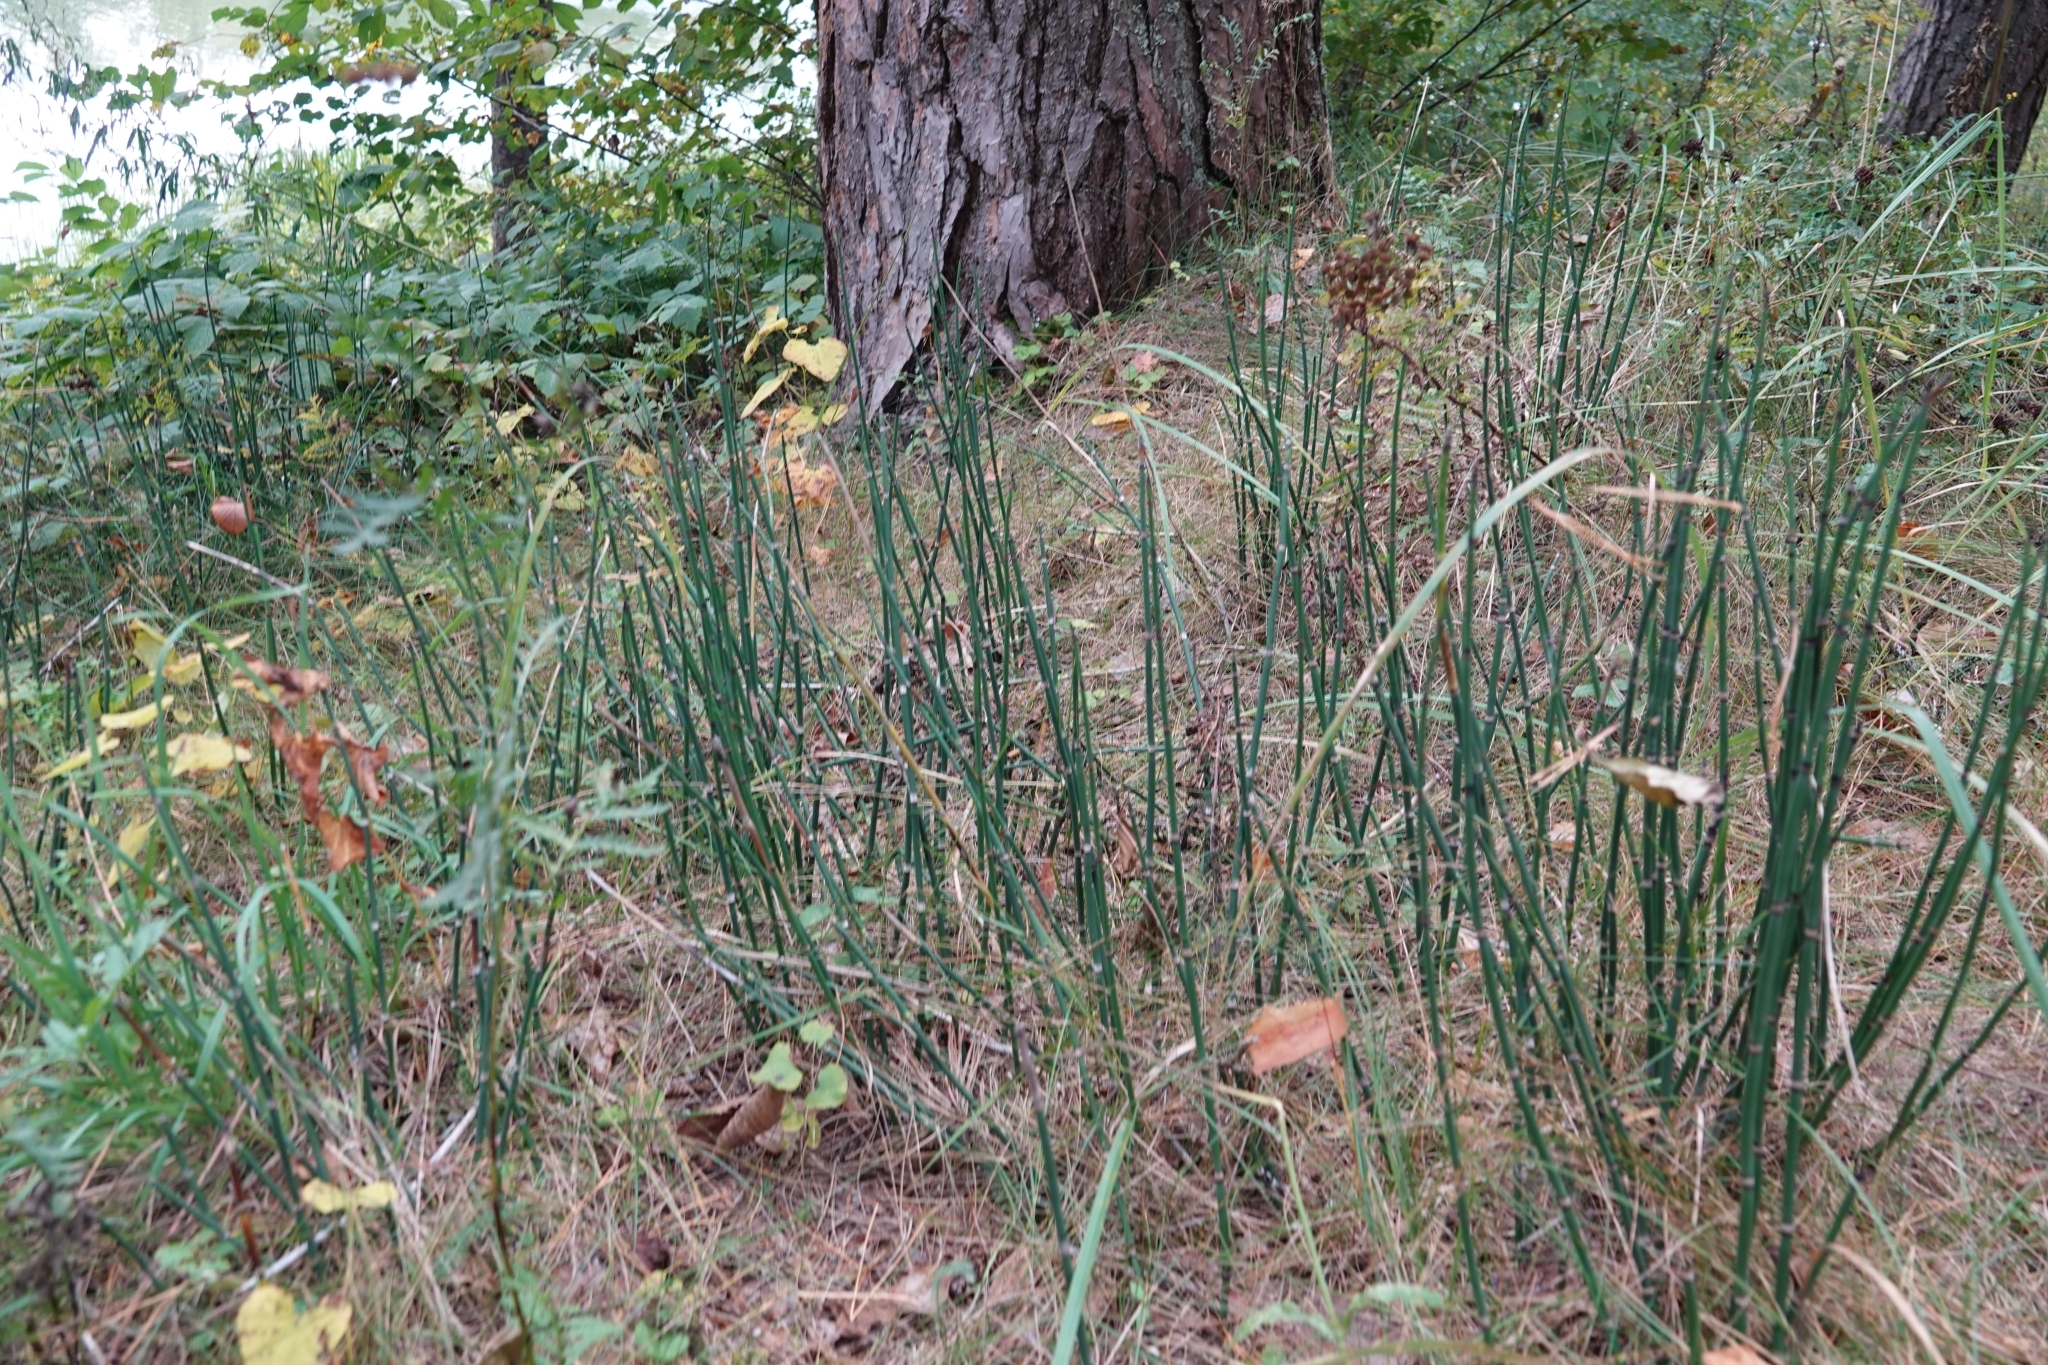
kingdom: Plantae
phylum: Tracheophyta
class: Polypodiopsida
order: Equisetales
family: Equisetaceae
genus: Equisetum
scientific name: Equisetum hyemale
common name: Rough horsetail
